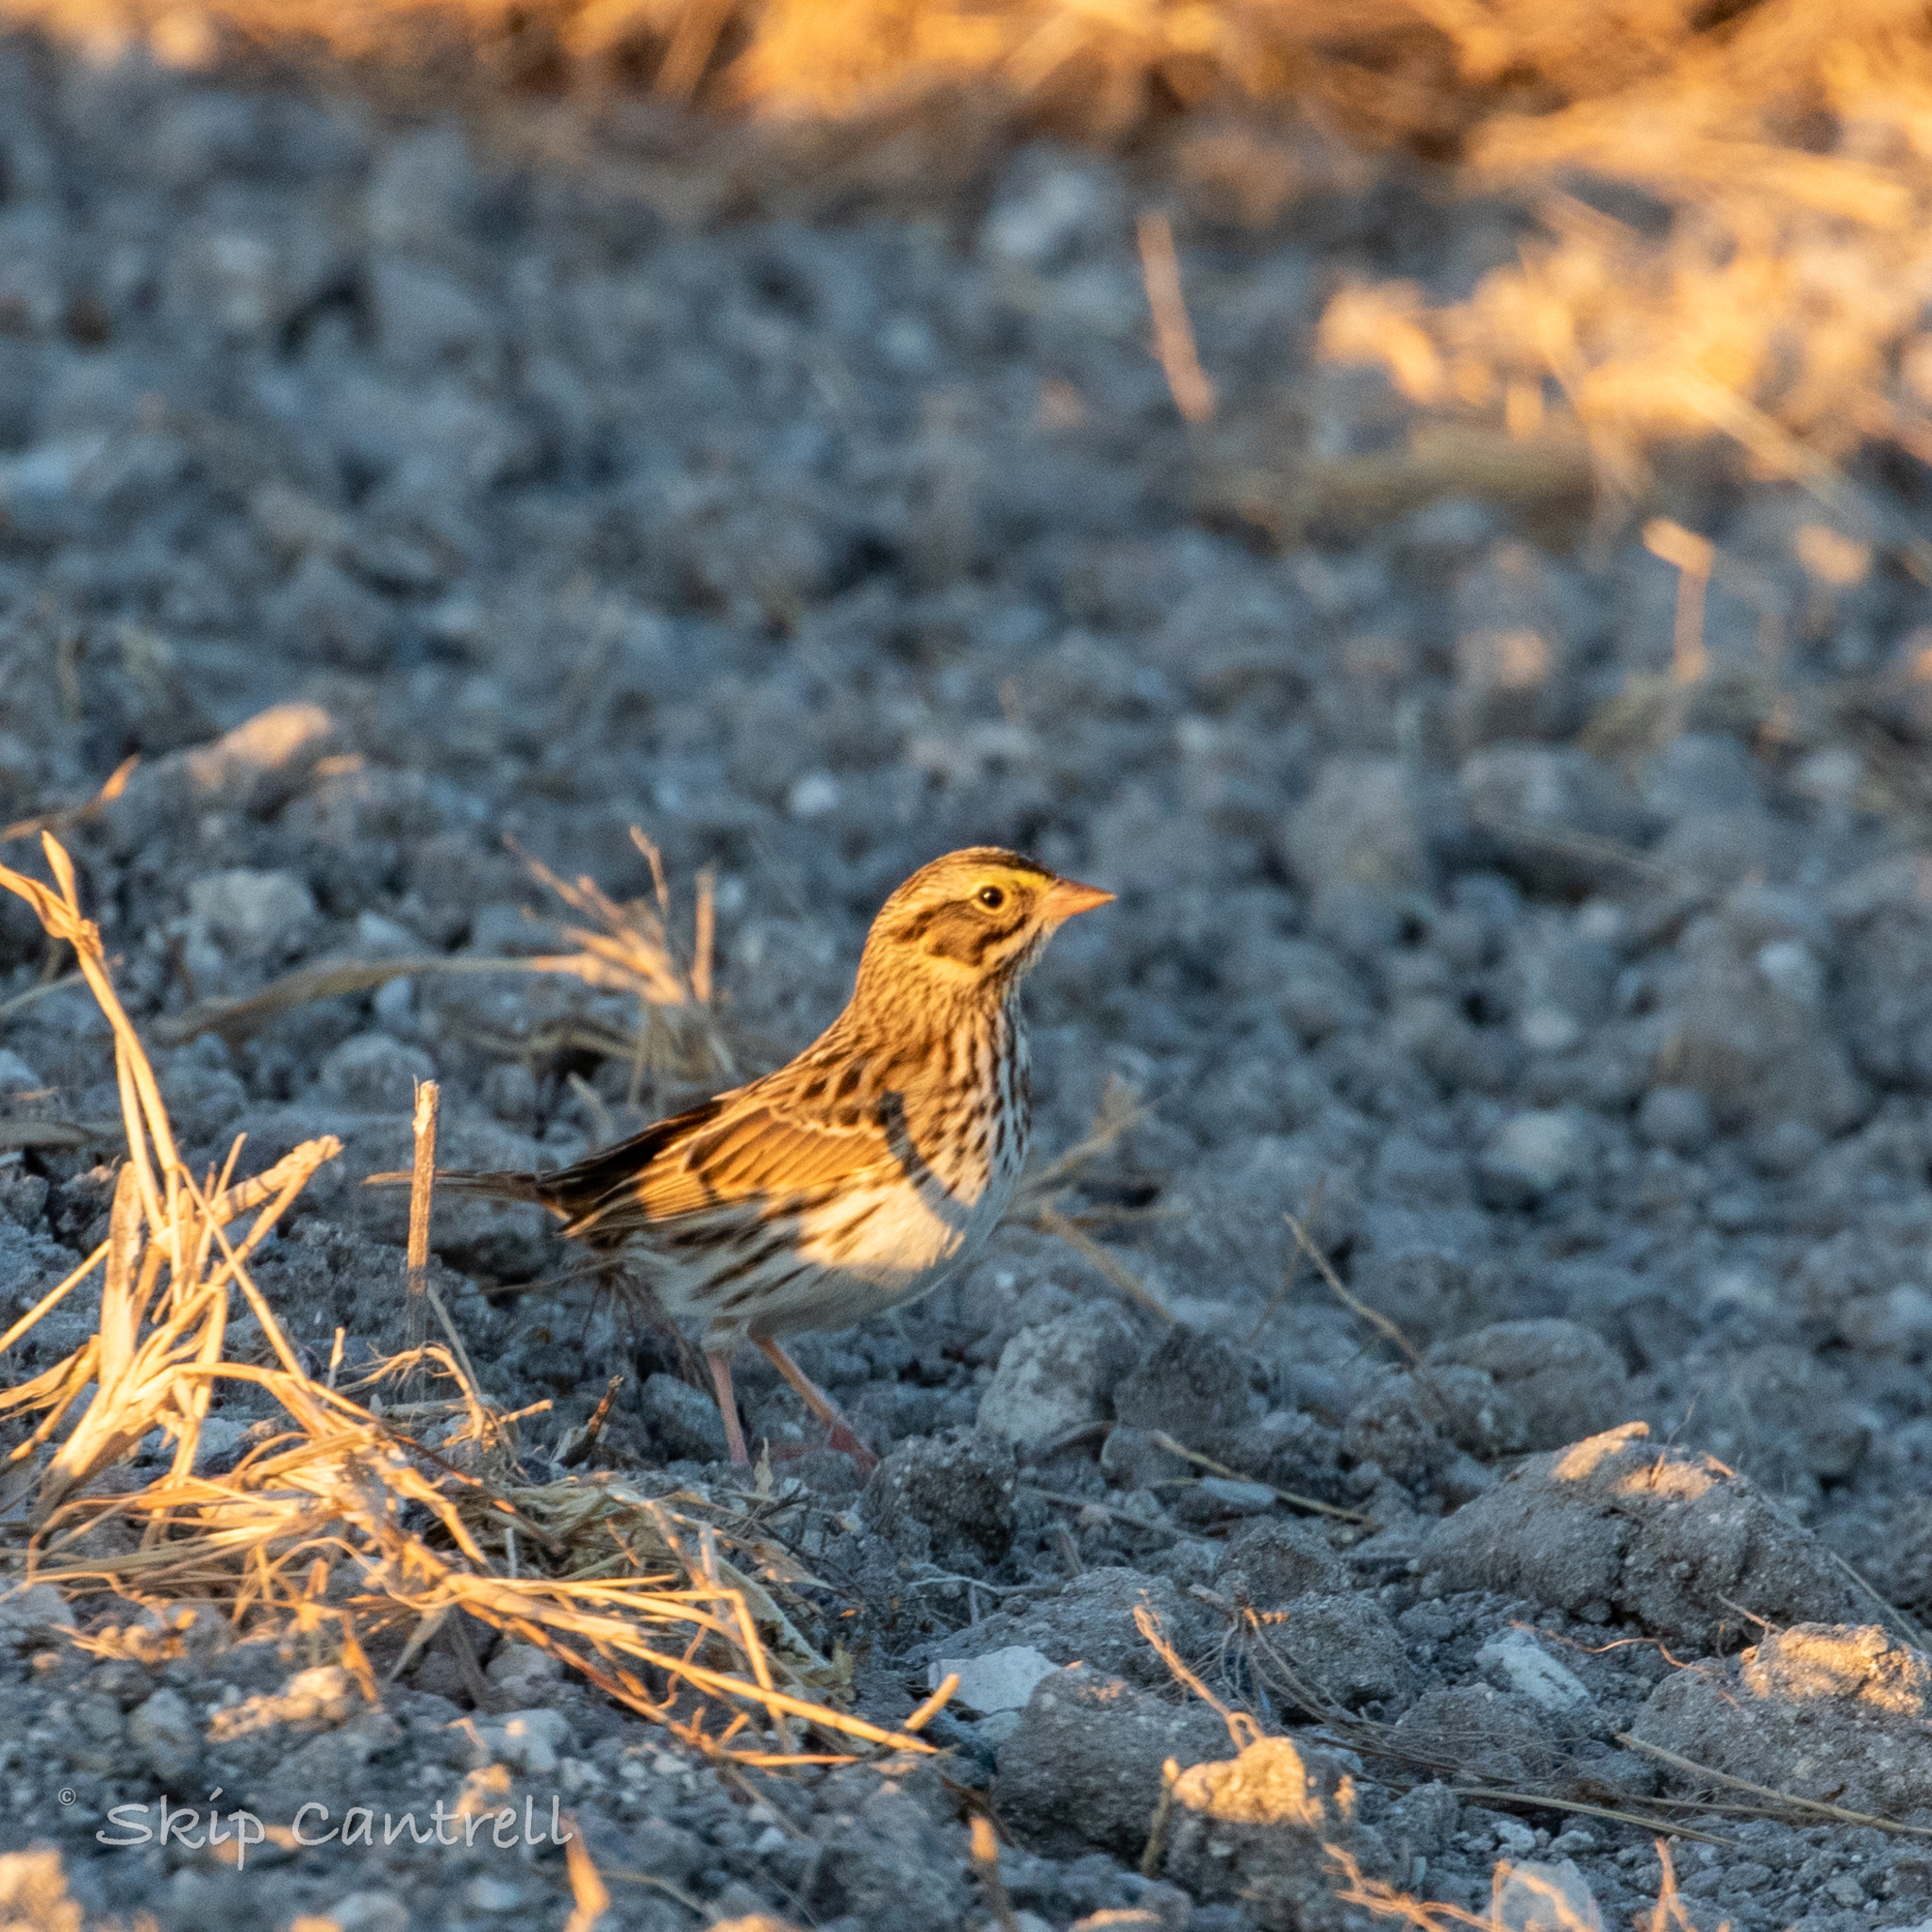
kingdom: Animalia
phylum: Chordata
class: Aves
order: Passeriformes
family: Passerellidae
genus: Passerculus
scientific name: Passerculus sandwichensis
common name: Savannah sparrow
